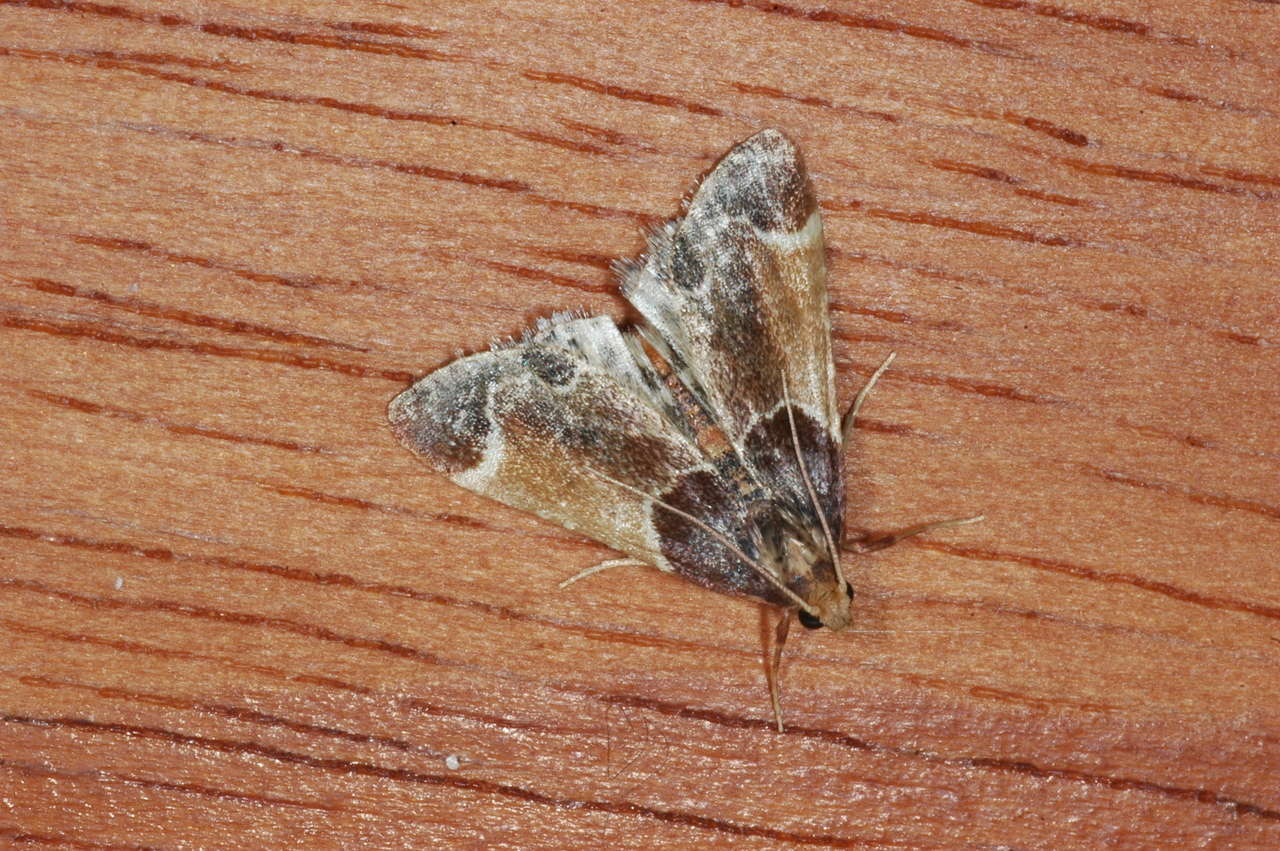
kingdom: Animalia
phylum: Arthropoda
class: Insecta
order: Lepidoptera
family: Pyralidae
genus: Pyralis
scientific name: Pyralis farinalis
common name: Meal moth
